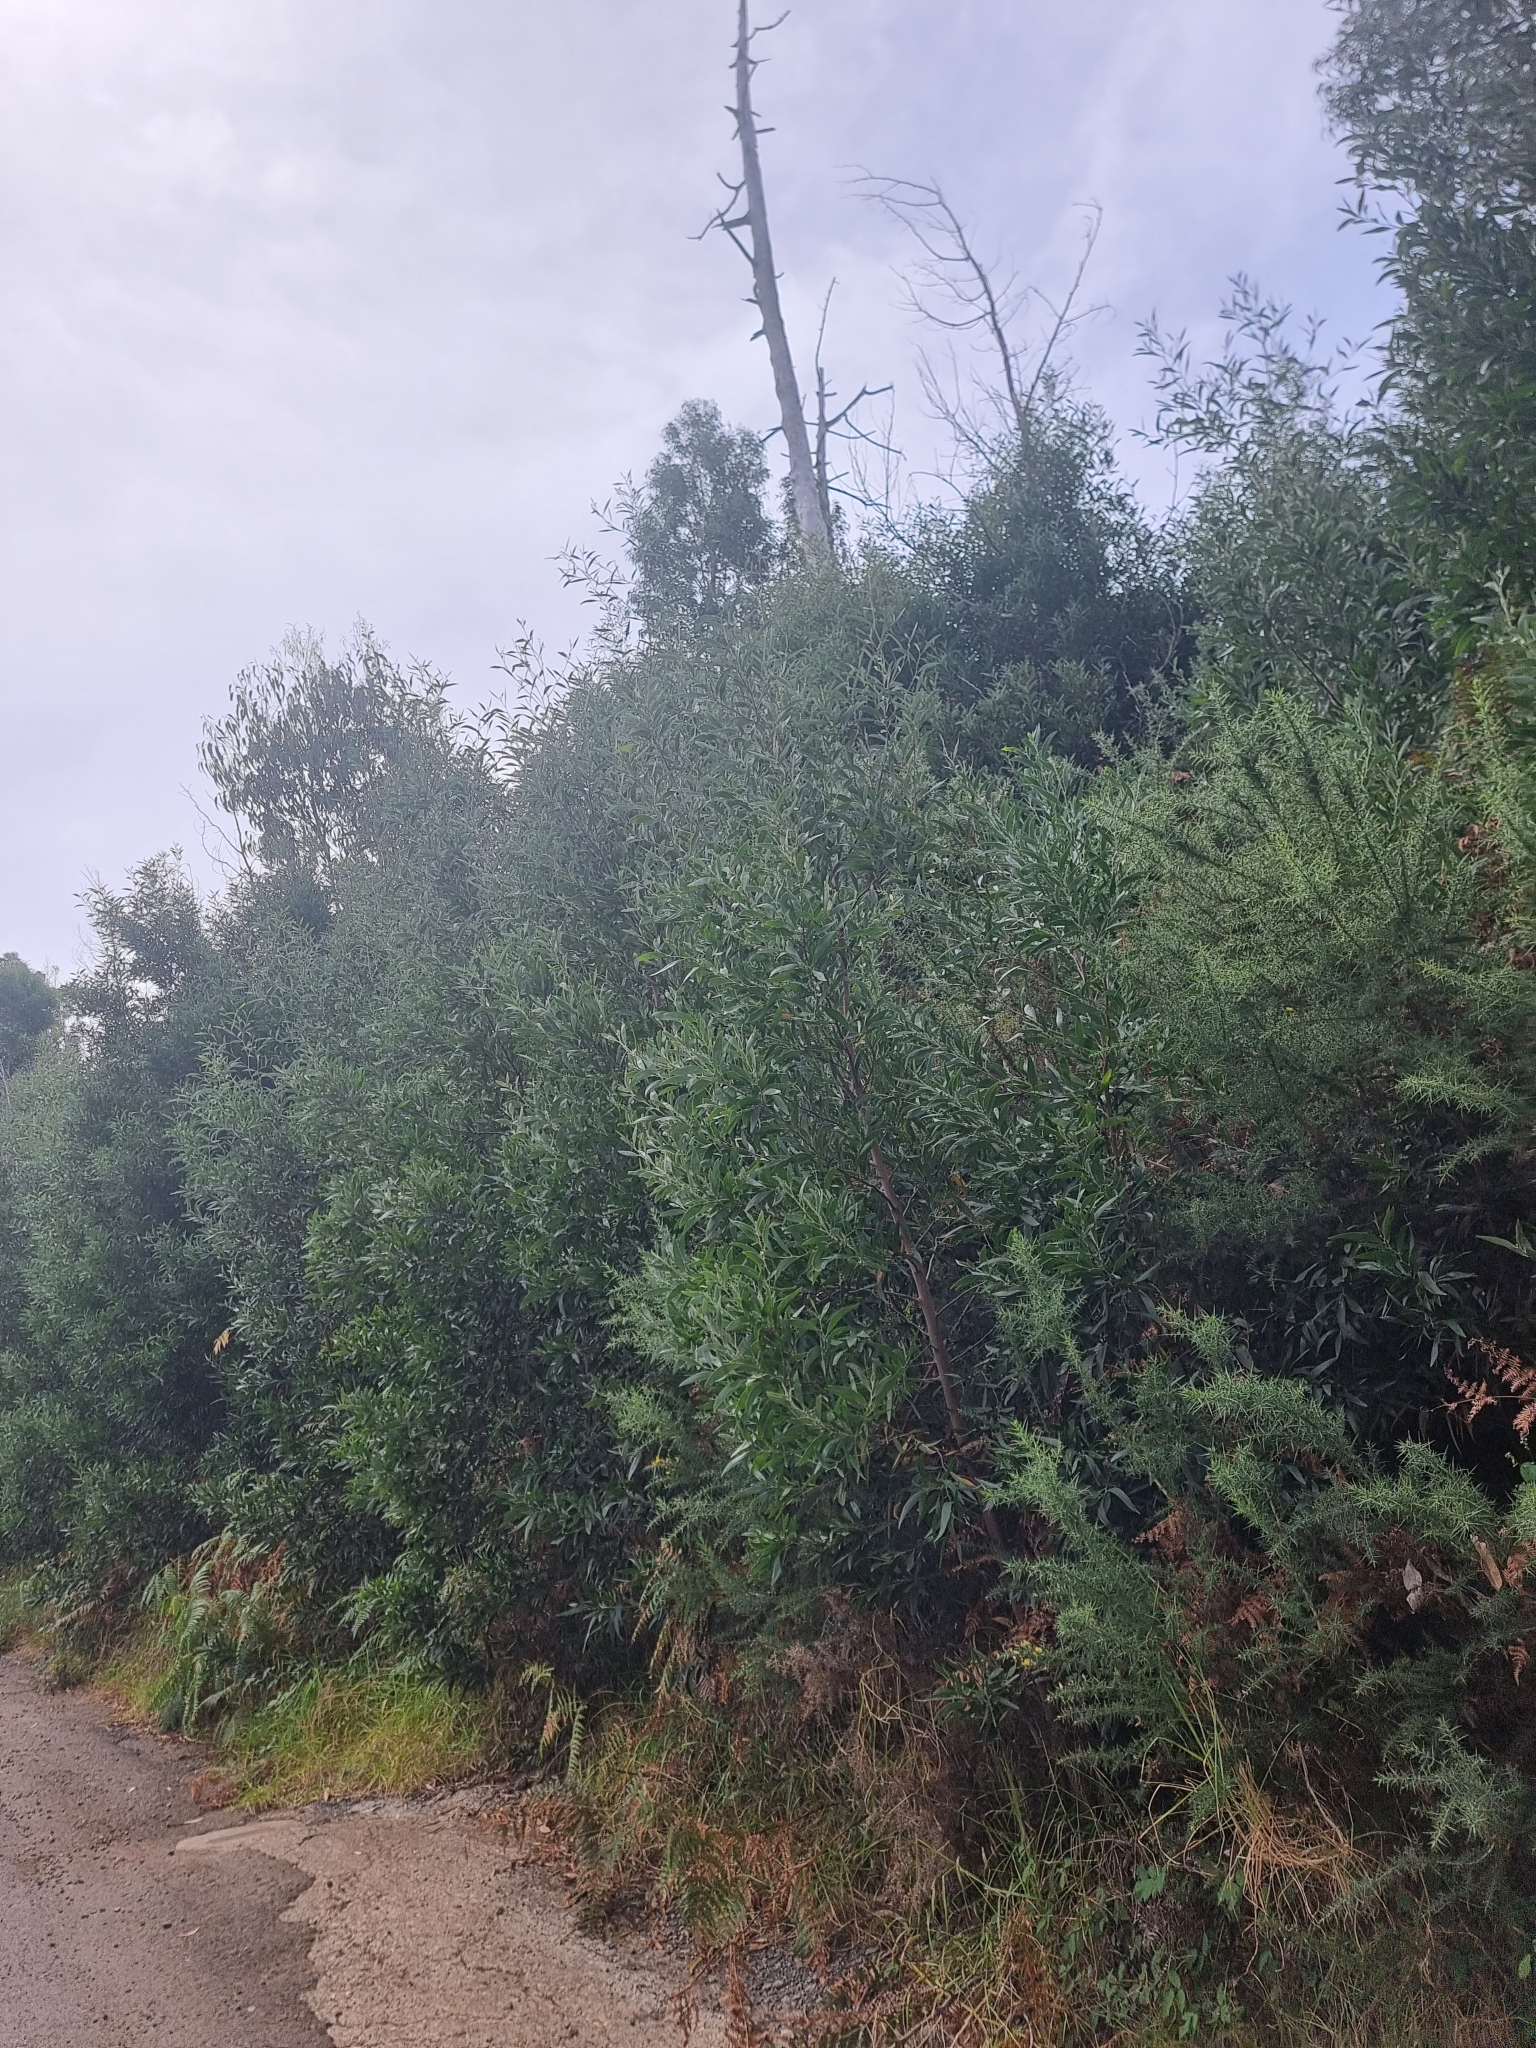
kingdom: Plantae
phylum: Tracheophyta
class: Magnoliopsida
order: Fabales
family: Fabaceae
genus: Acacia
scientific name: Acacia melanoxylon
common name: Blackwood
